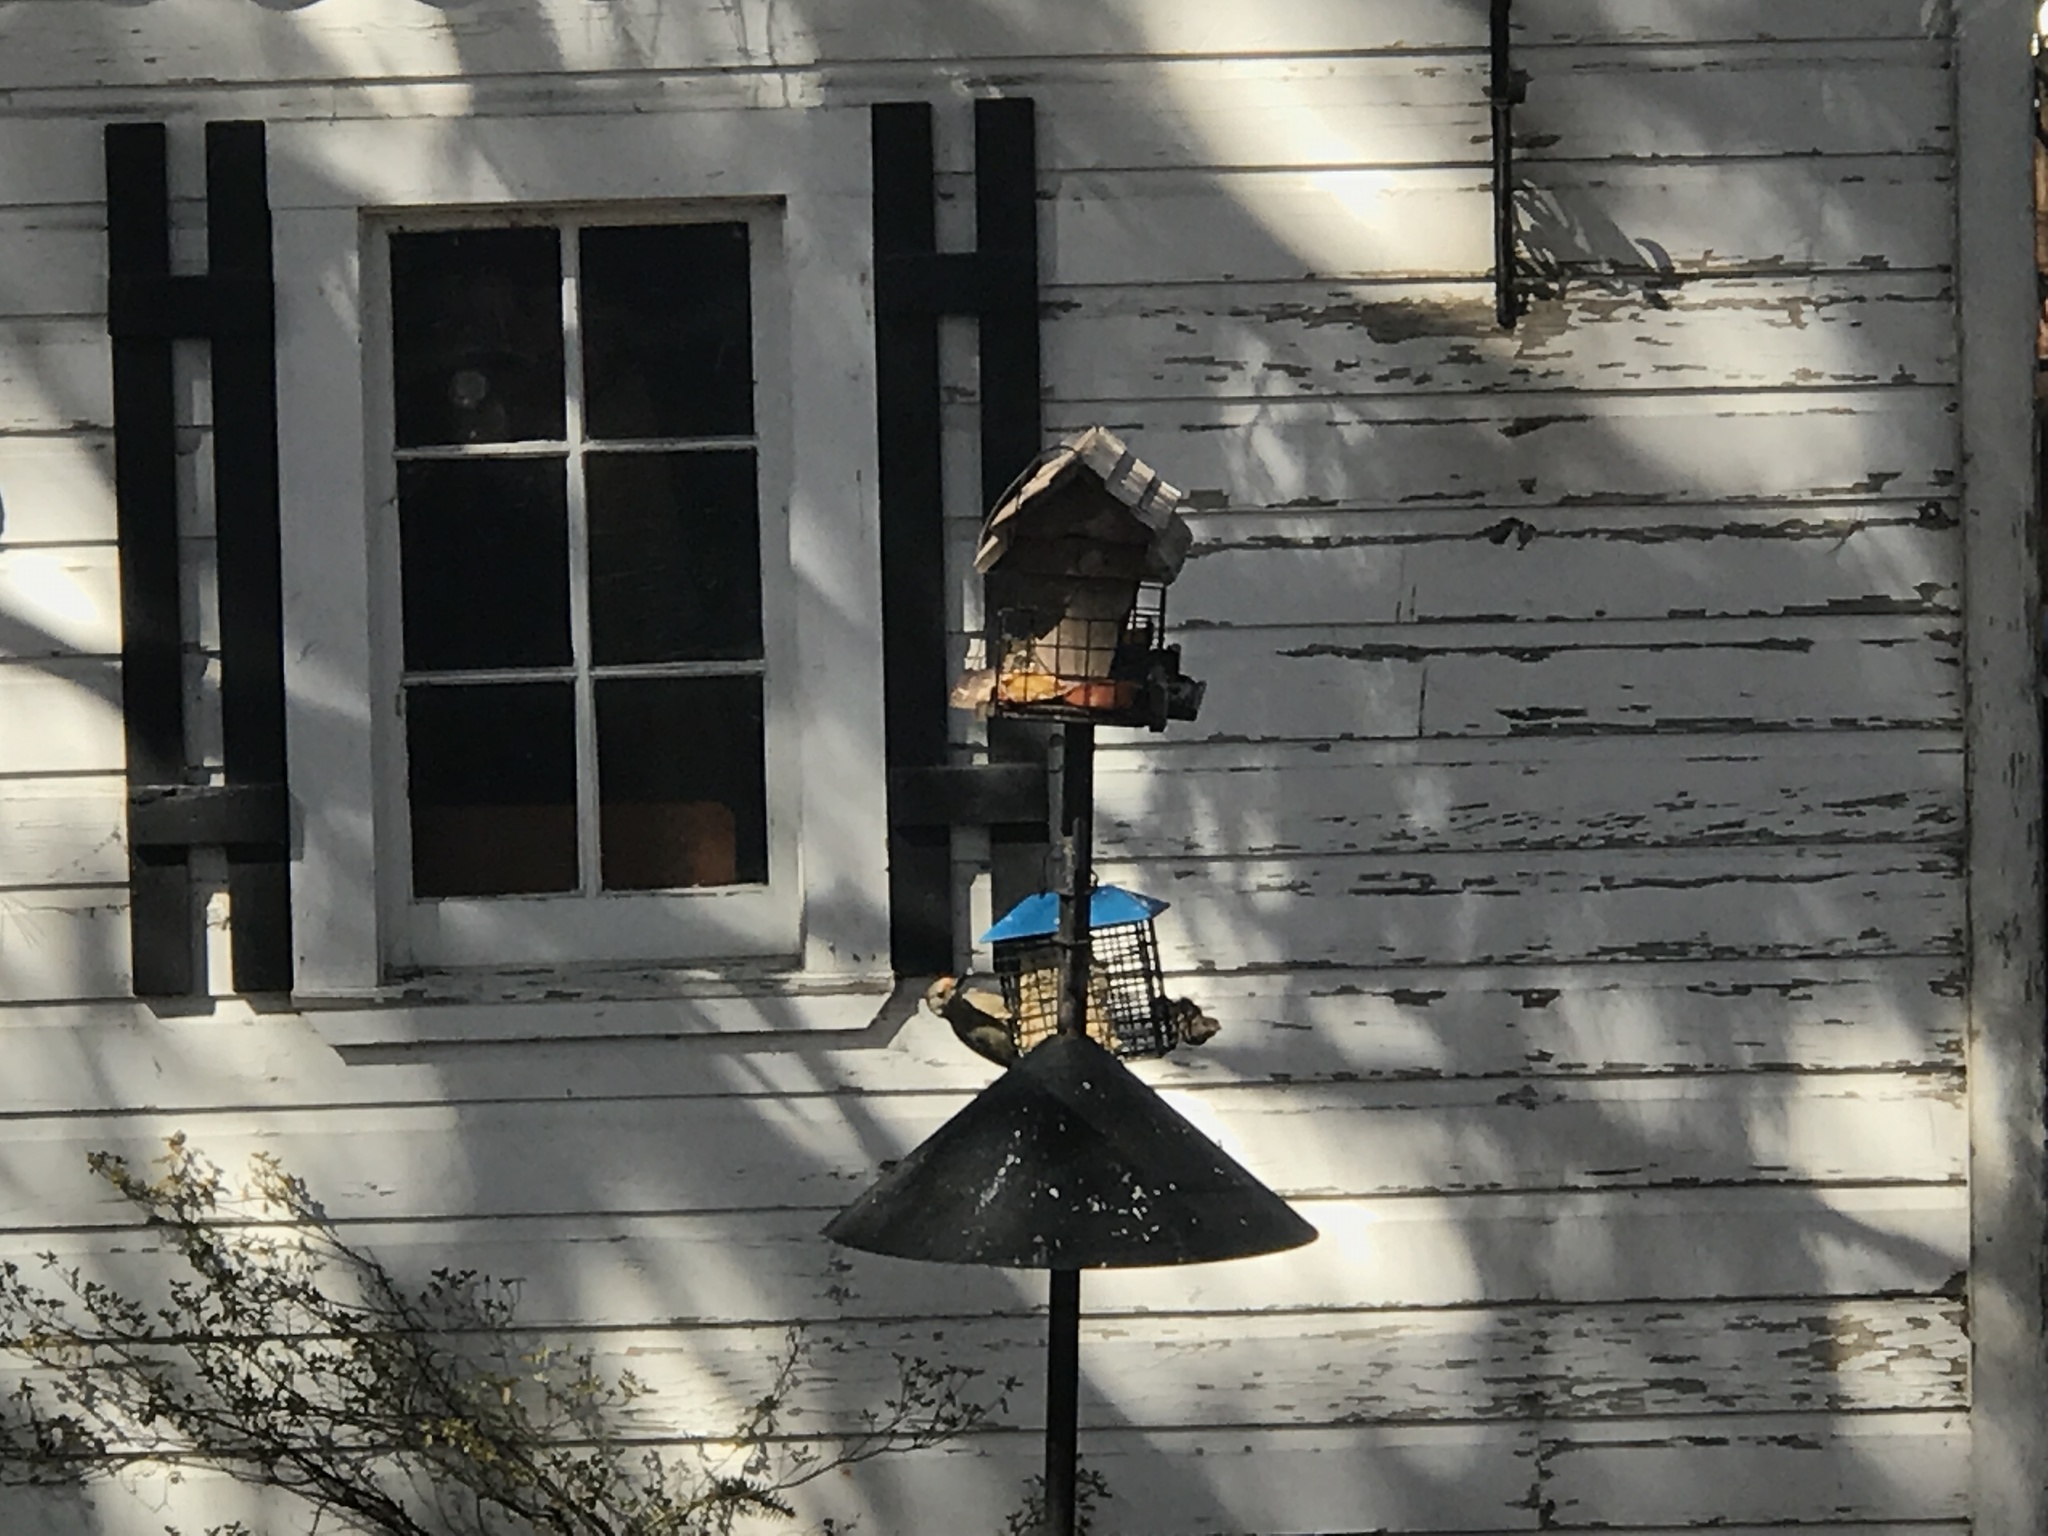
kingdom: Animalia
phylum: Chordata
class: Aves
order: Piciformes
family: Picidae
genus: Melanerpes
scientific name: Melanerpes carolinus
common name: Red-bellied woodpecker
